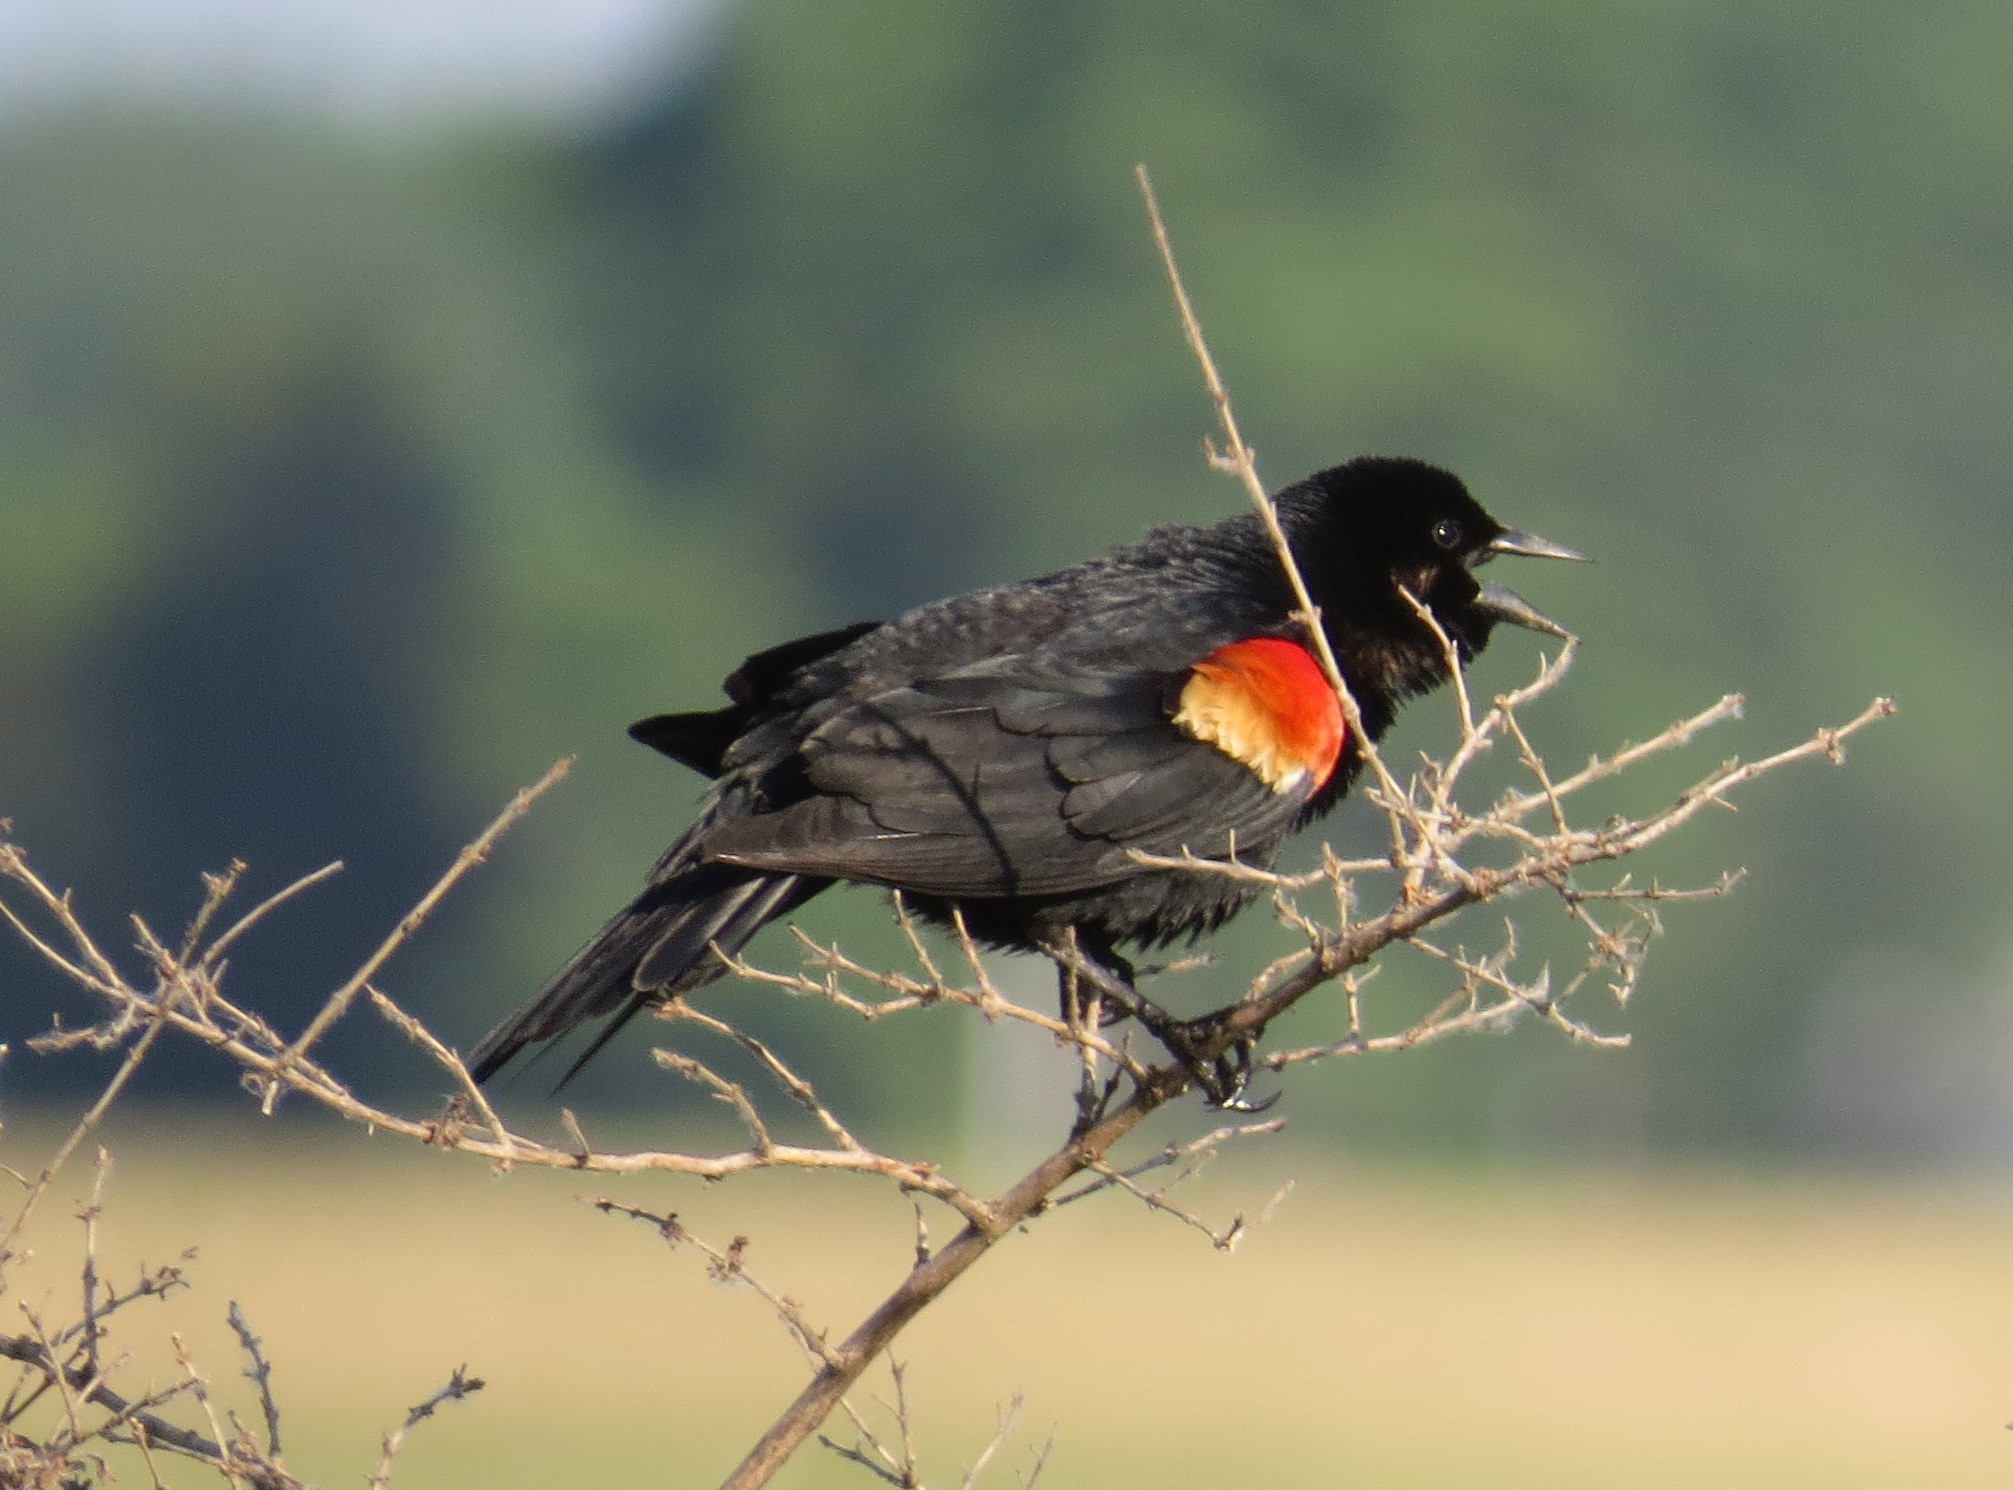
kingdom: Animalia
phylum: Chordata
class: Aves
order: Passeriformes
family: Icteridae
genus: Agelaius
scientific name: Agelaius phoeniceus
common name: Red-winged blackbird
